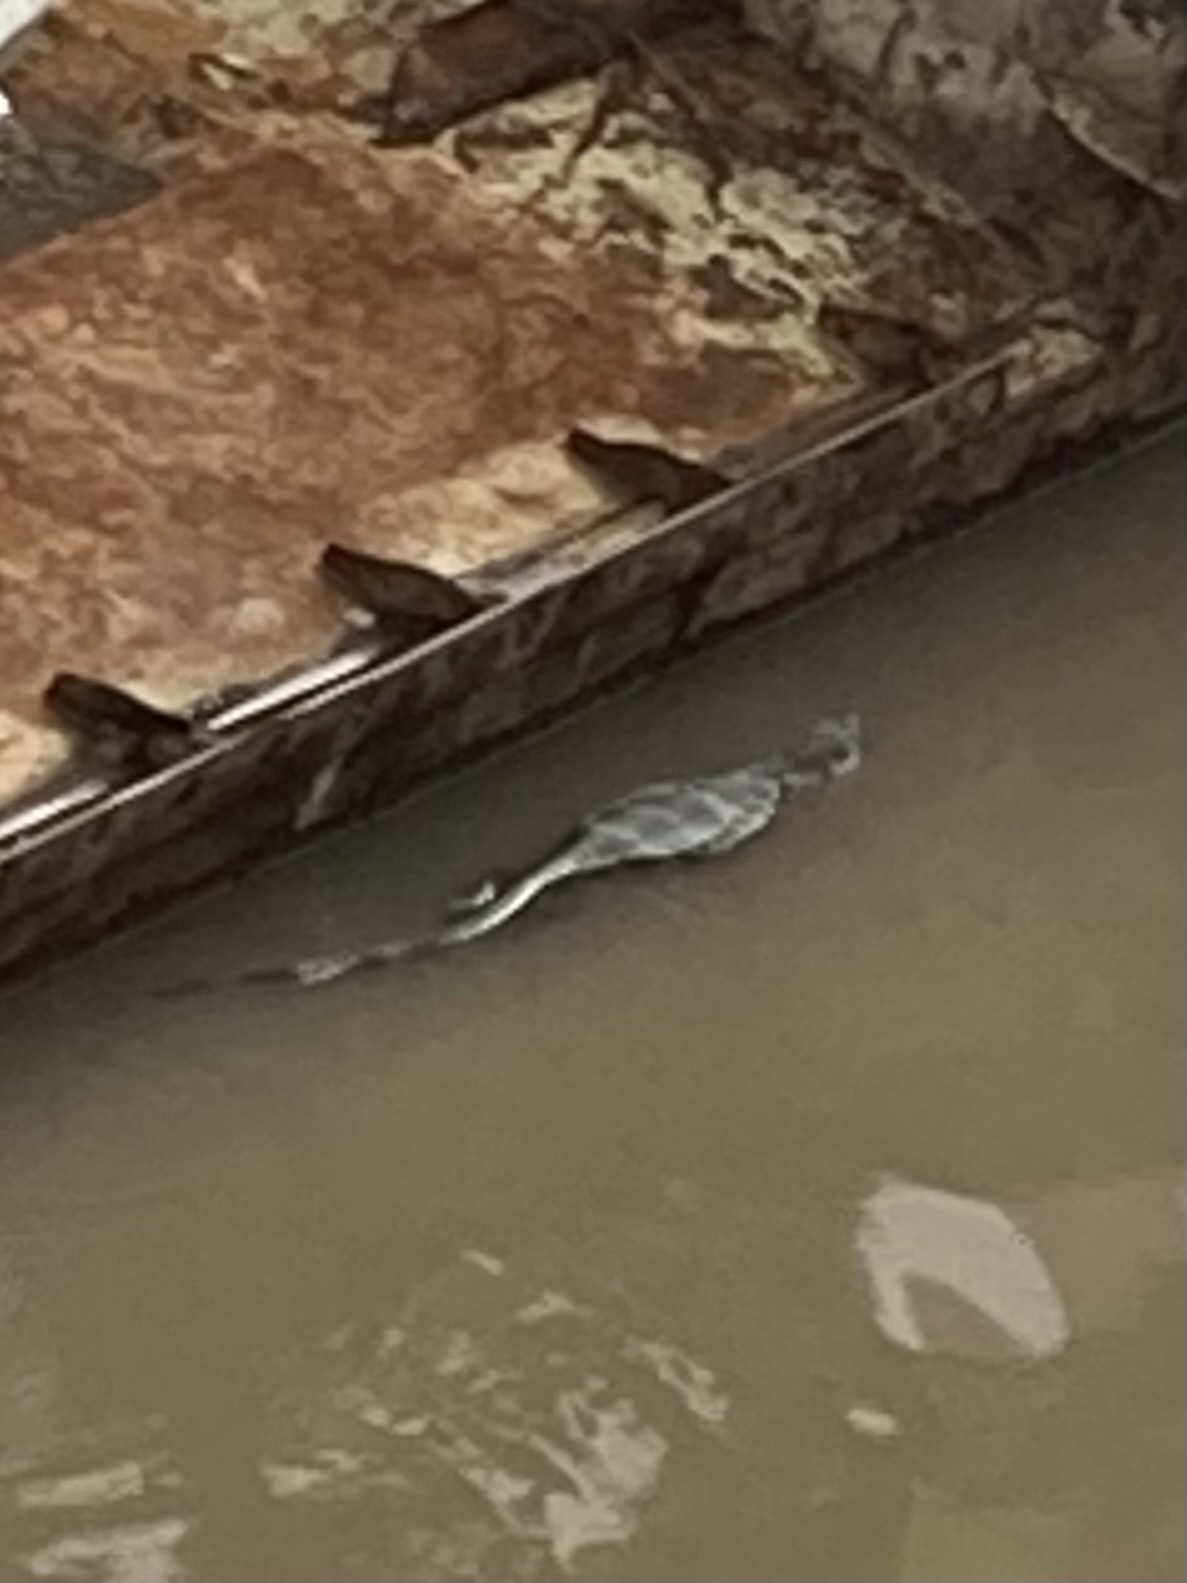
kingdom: Animalia
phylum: Chordata
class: Squamata
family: Varanidae
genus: Varanus
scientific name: Varanus salvator
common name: Common water monitor
